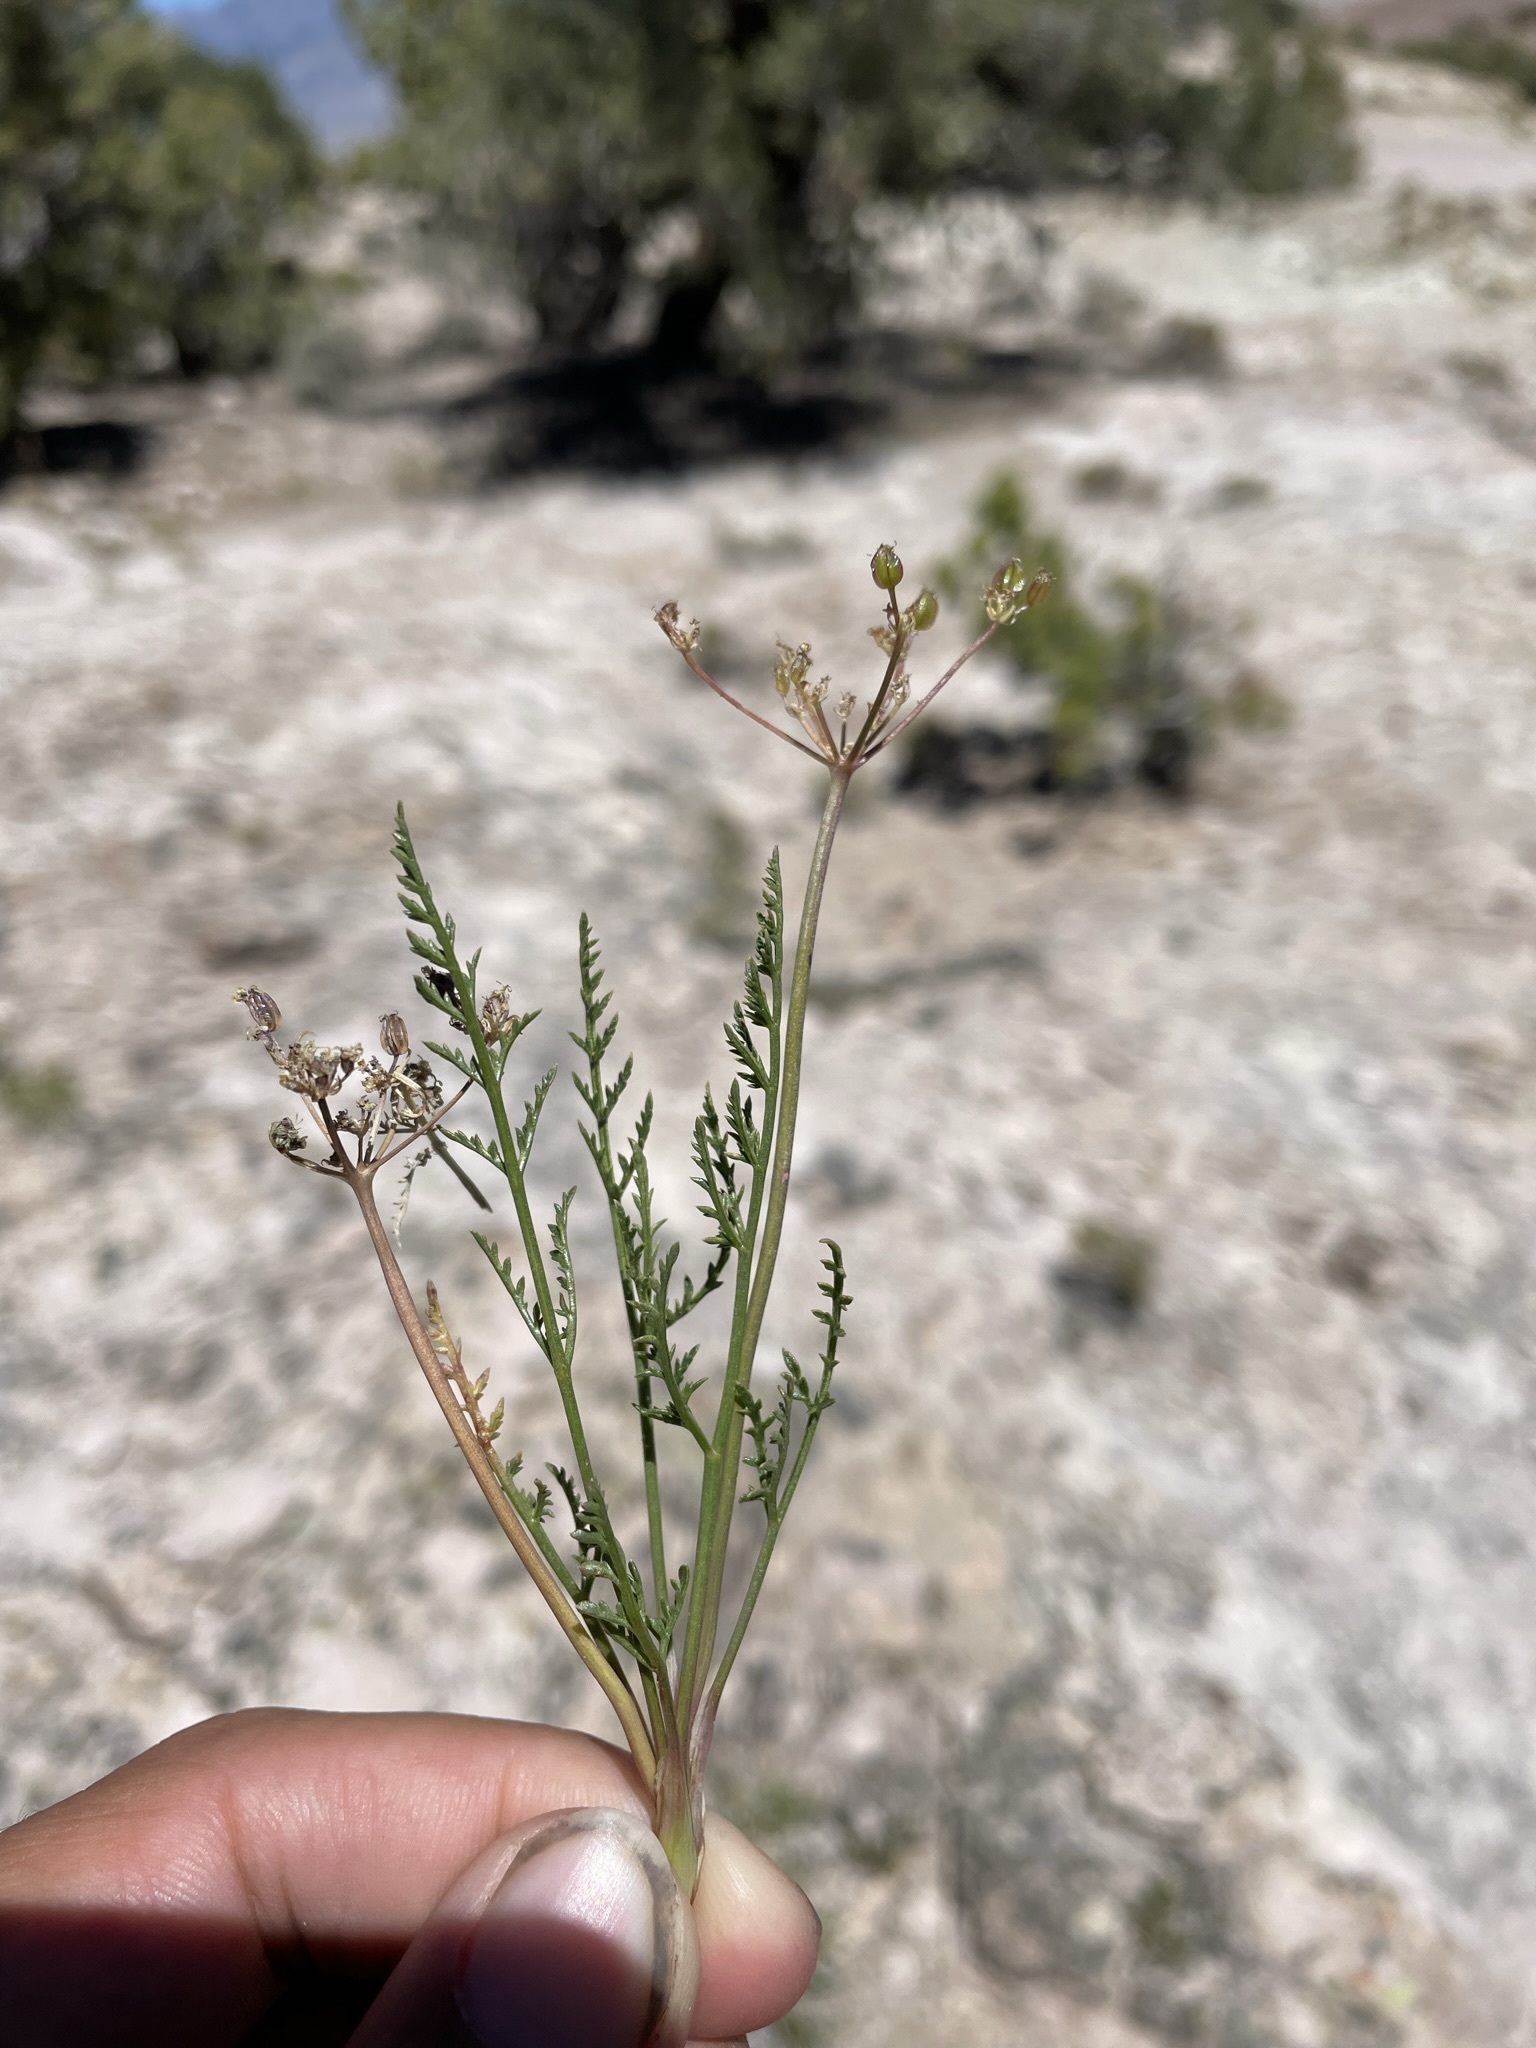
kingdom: Plantae
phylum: Tracheophyta
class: Magnoliopsida
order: Apiales
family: Apiaceae
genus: Pteryxia
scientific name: Pteryxia petraea
